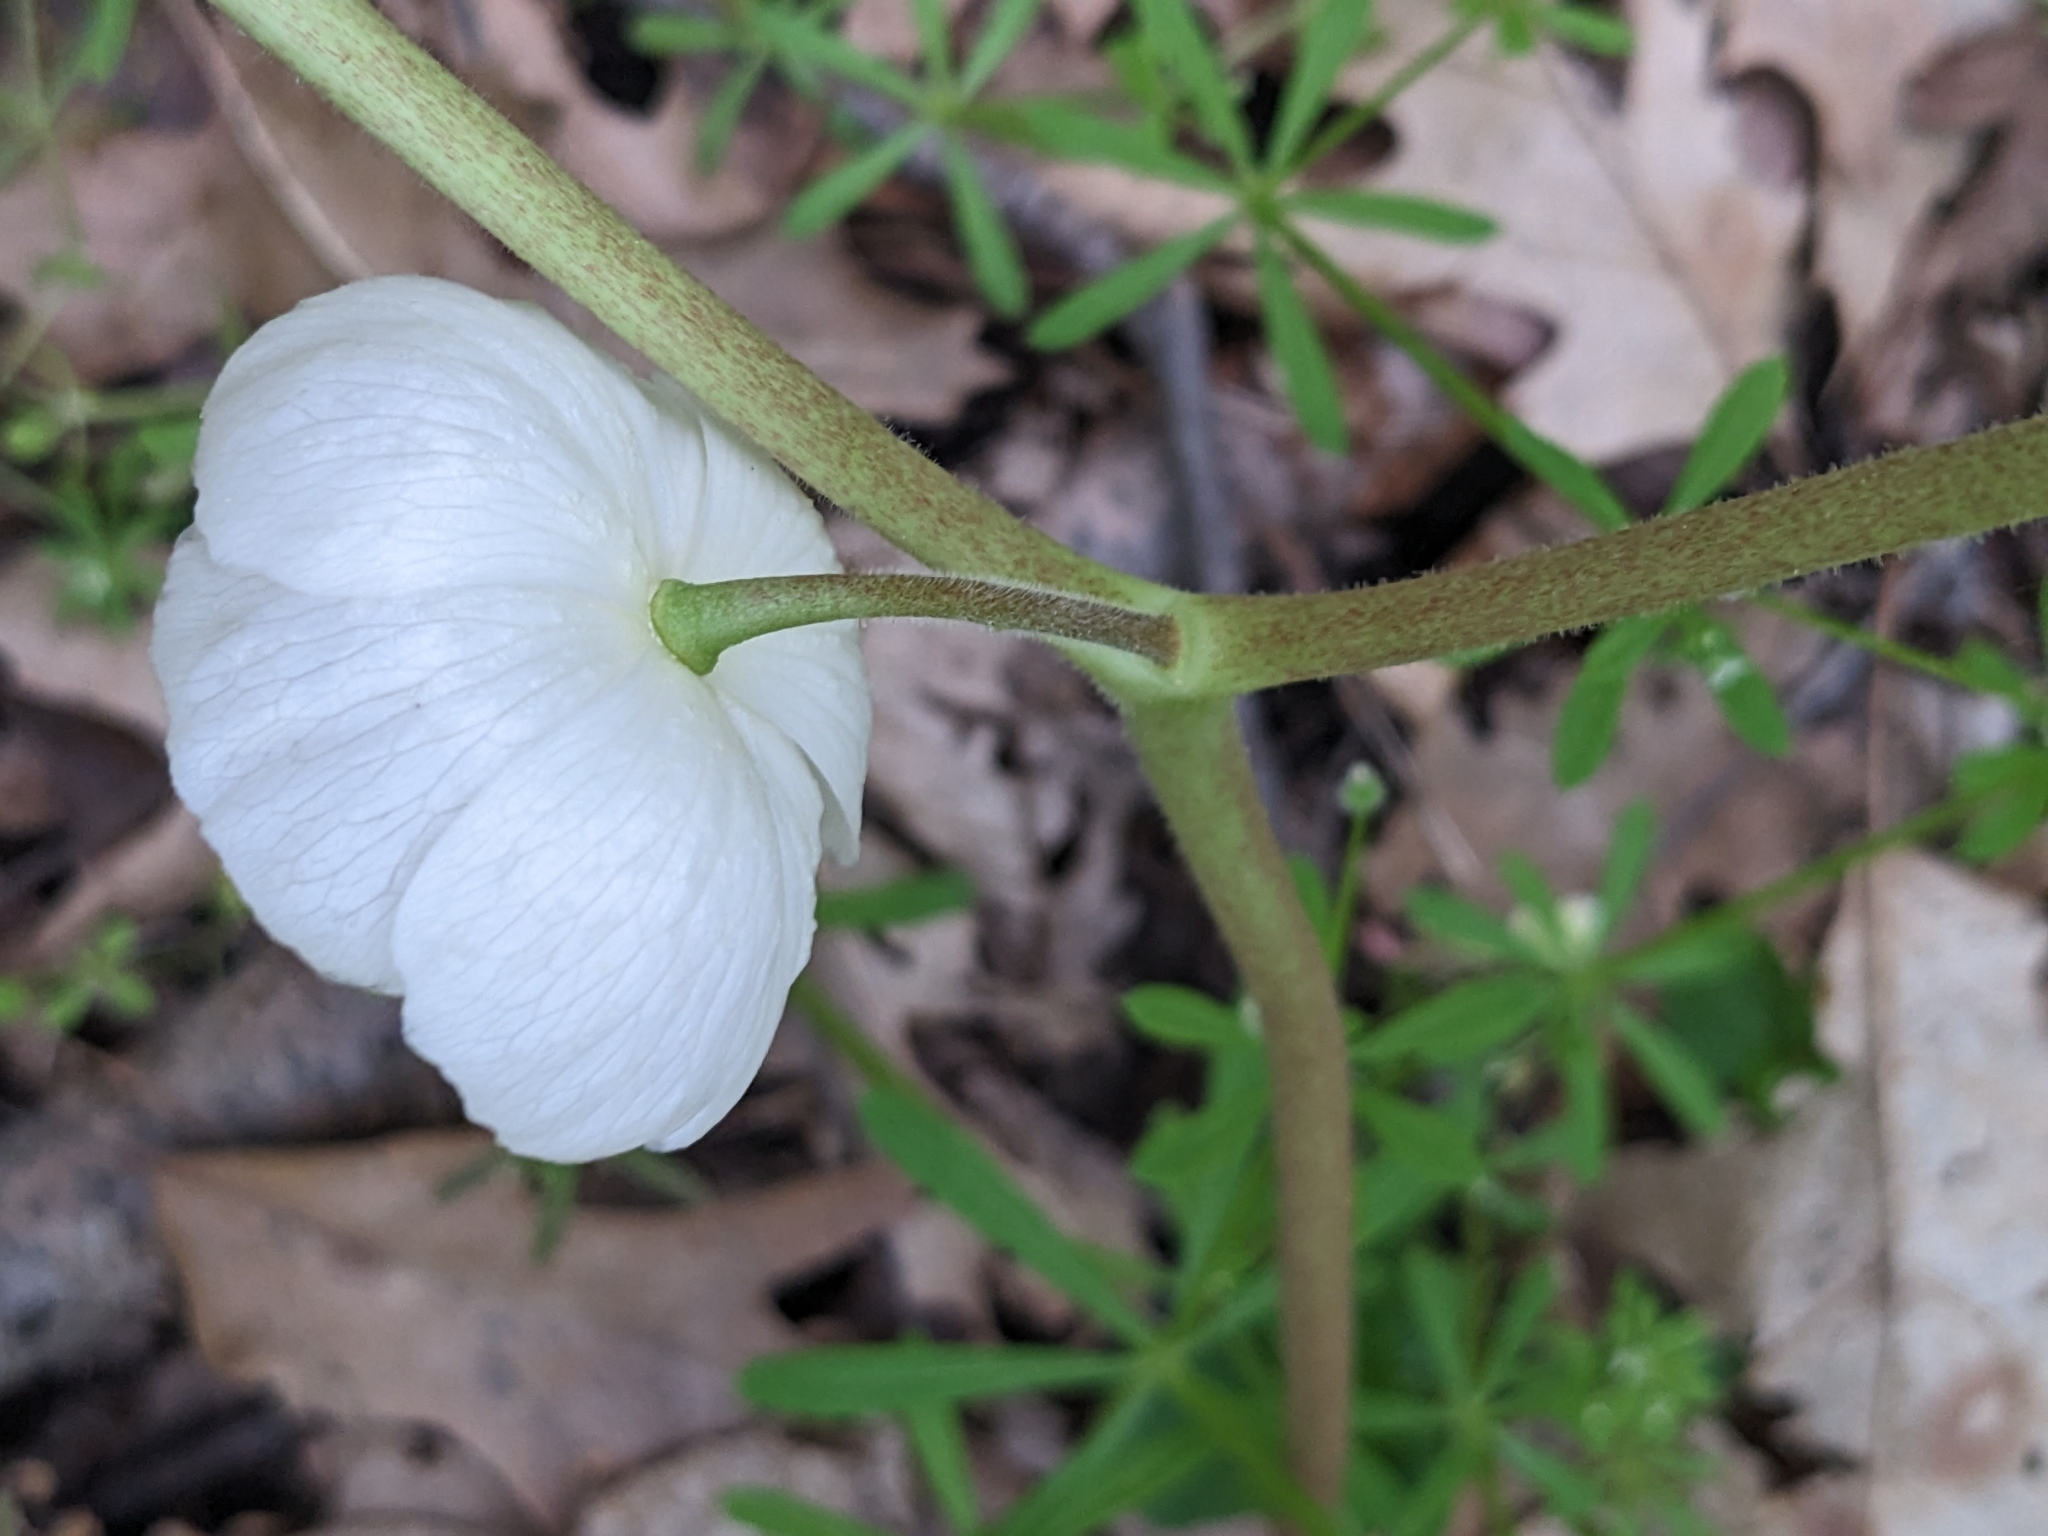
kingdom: Plantae
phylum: Tracheophyta
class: Magnoliopsida
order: Ranunculales
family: Berberidaceae
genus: Podophyllum
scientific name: Podophyllum peltatum
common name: Wild mandrake
